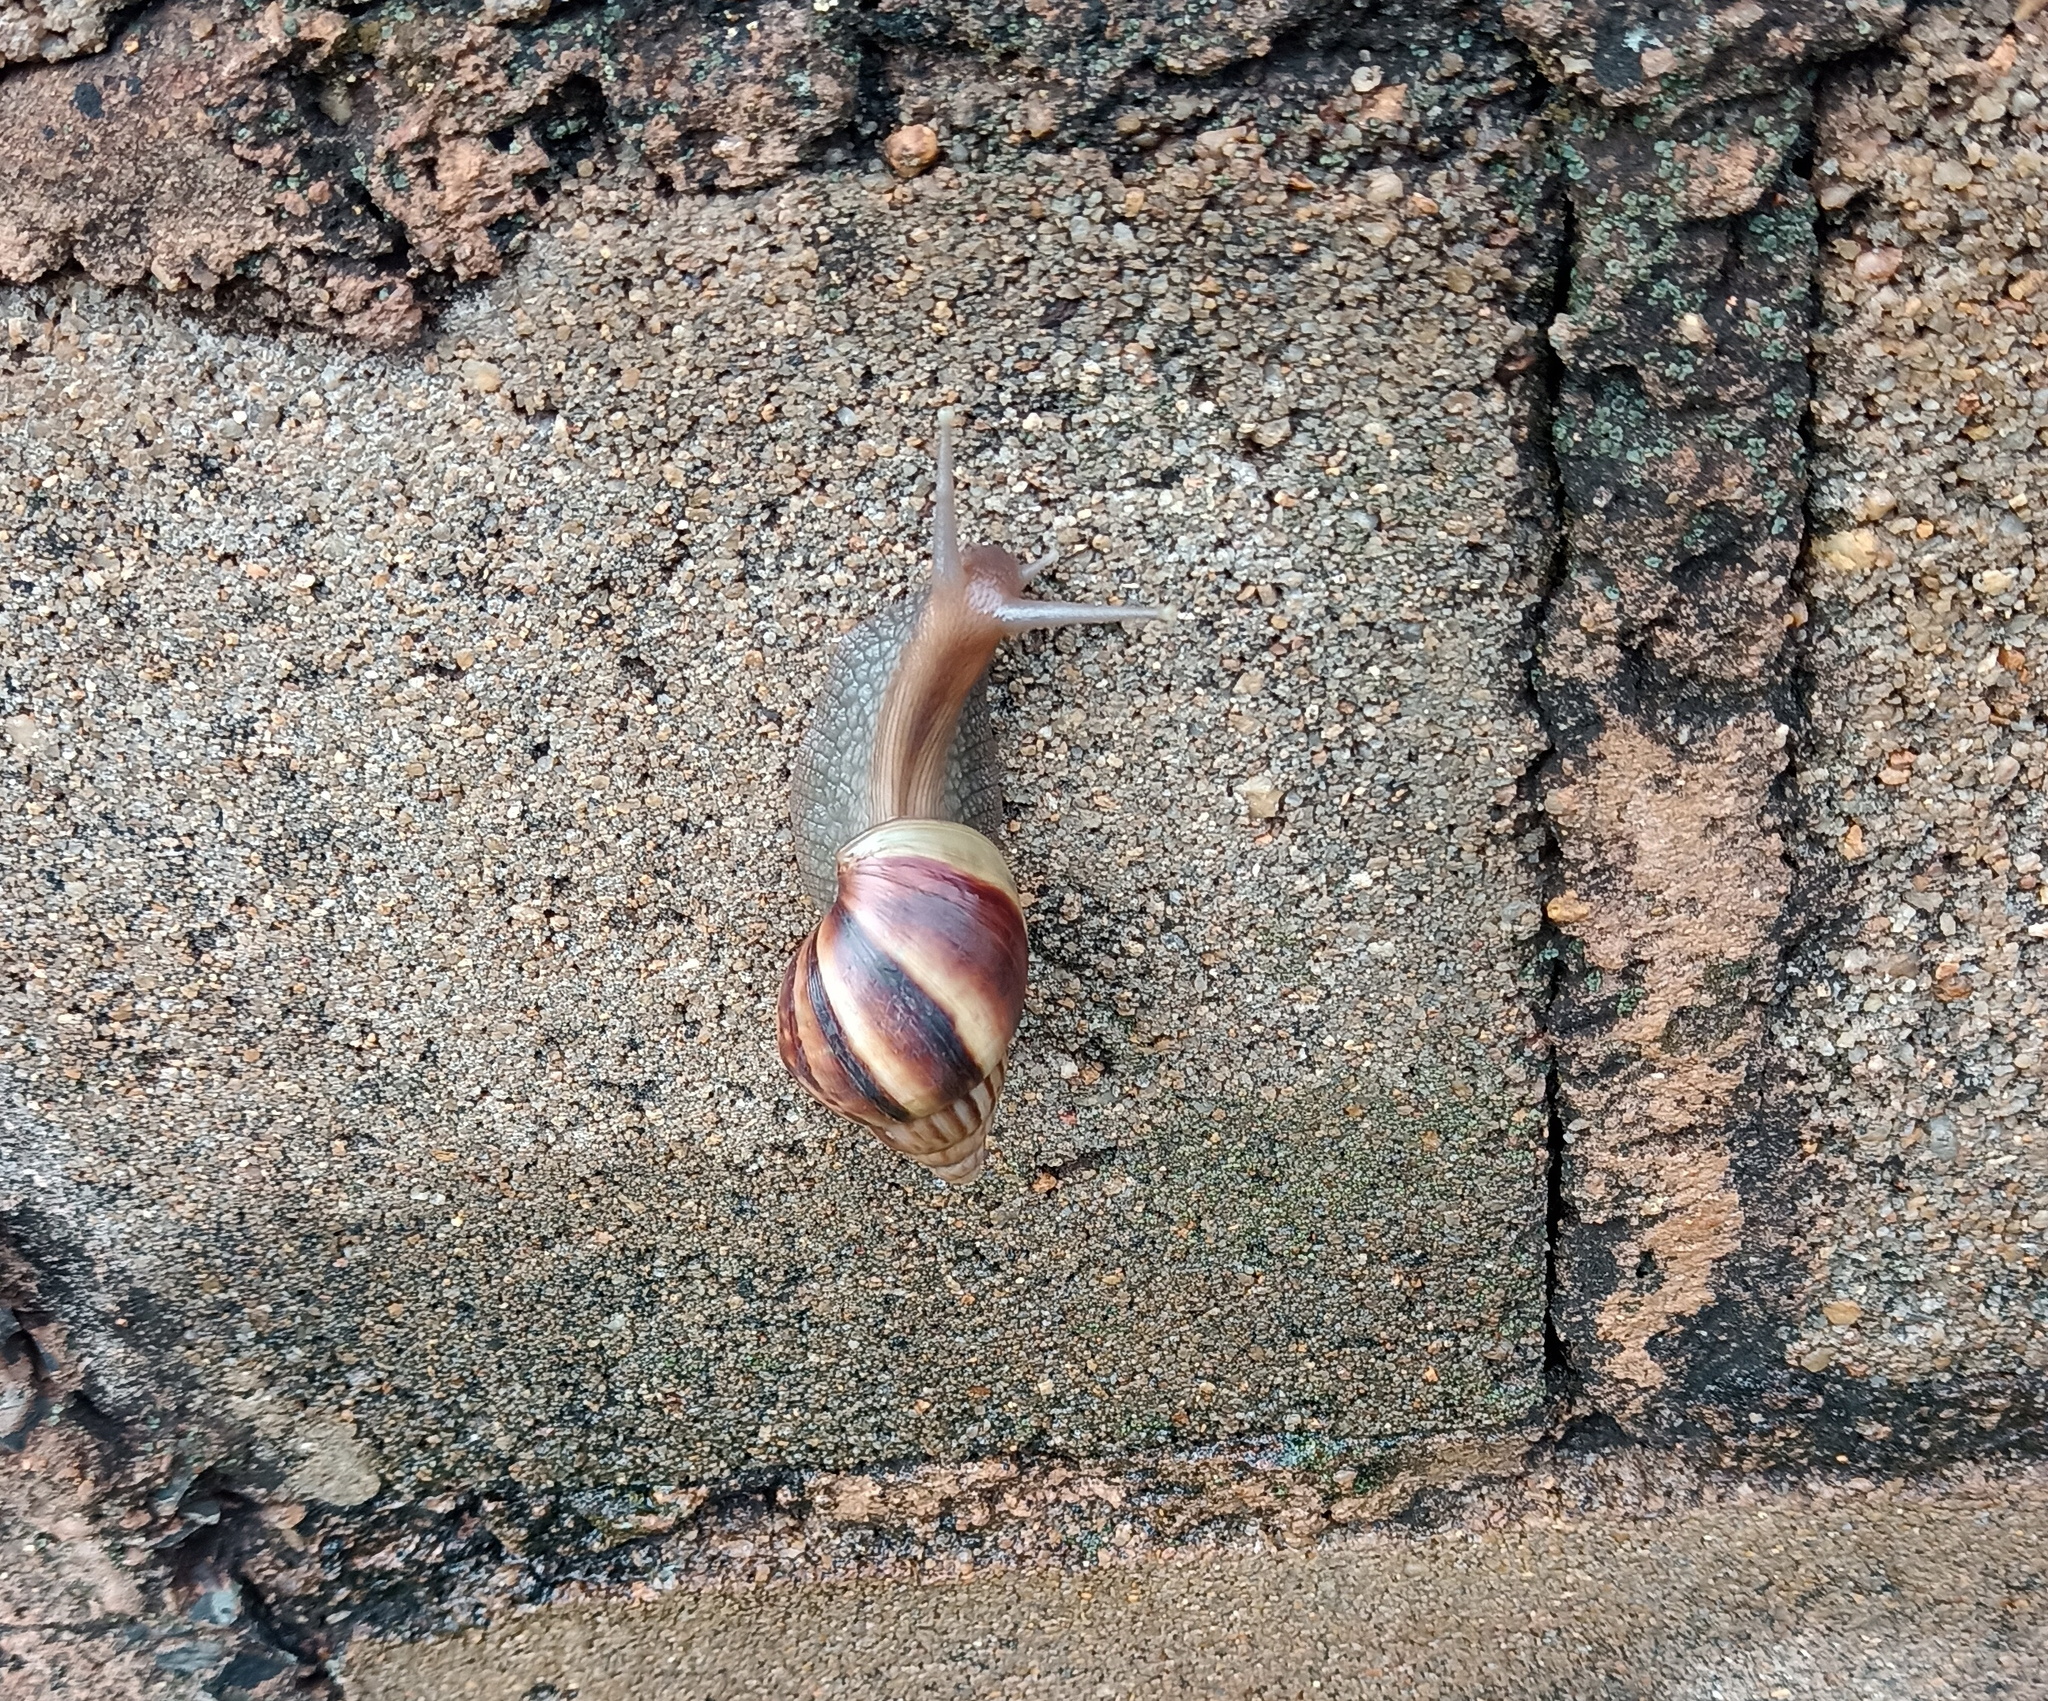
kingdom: Animalia
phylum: Mollusca
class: Gastropoda
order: Stylommatophora
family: Achatinidae
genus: Lissachatina
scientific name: Lissachatina fulica
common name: Giant african snail
